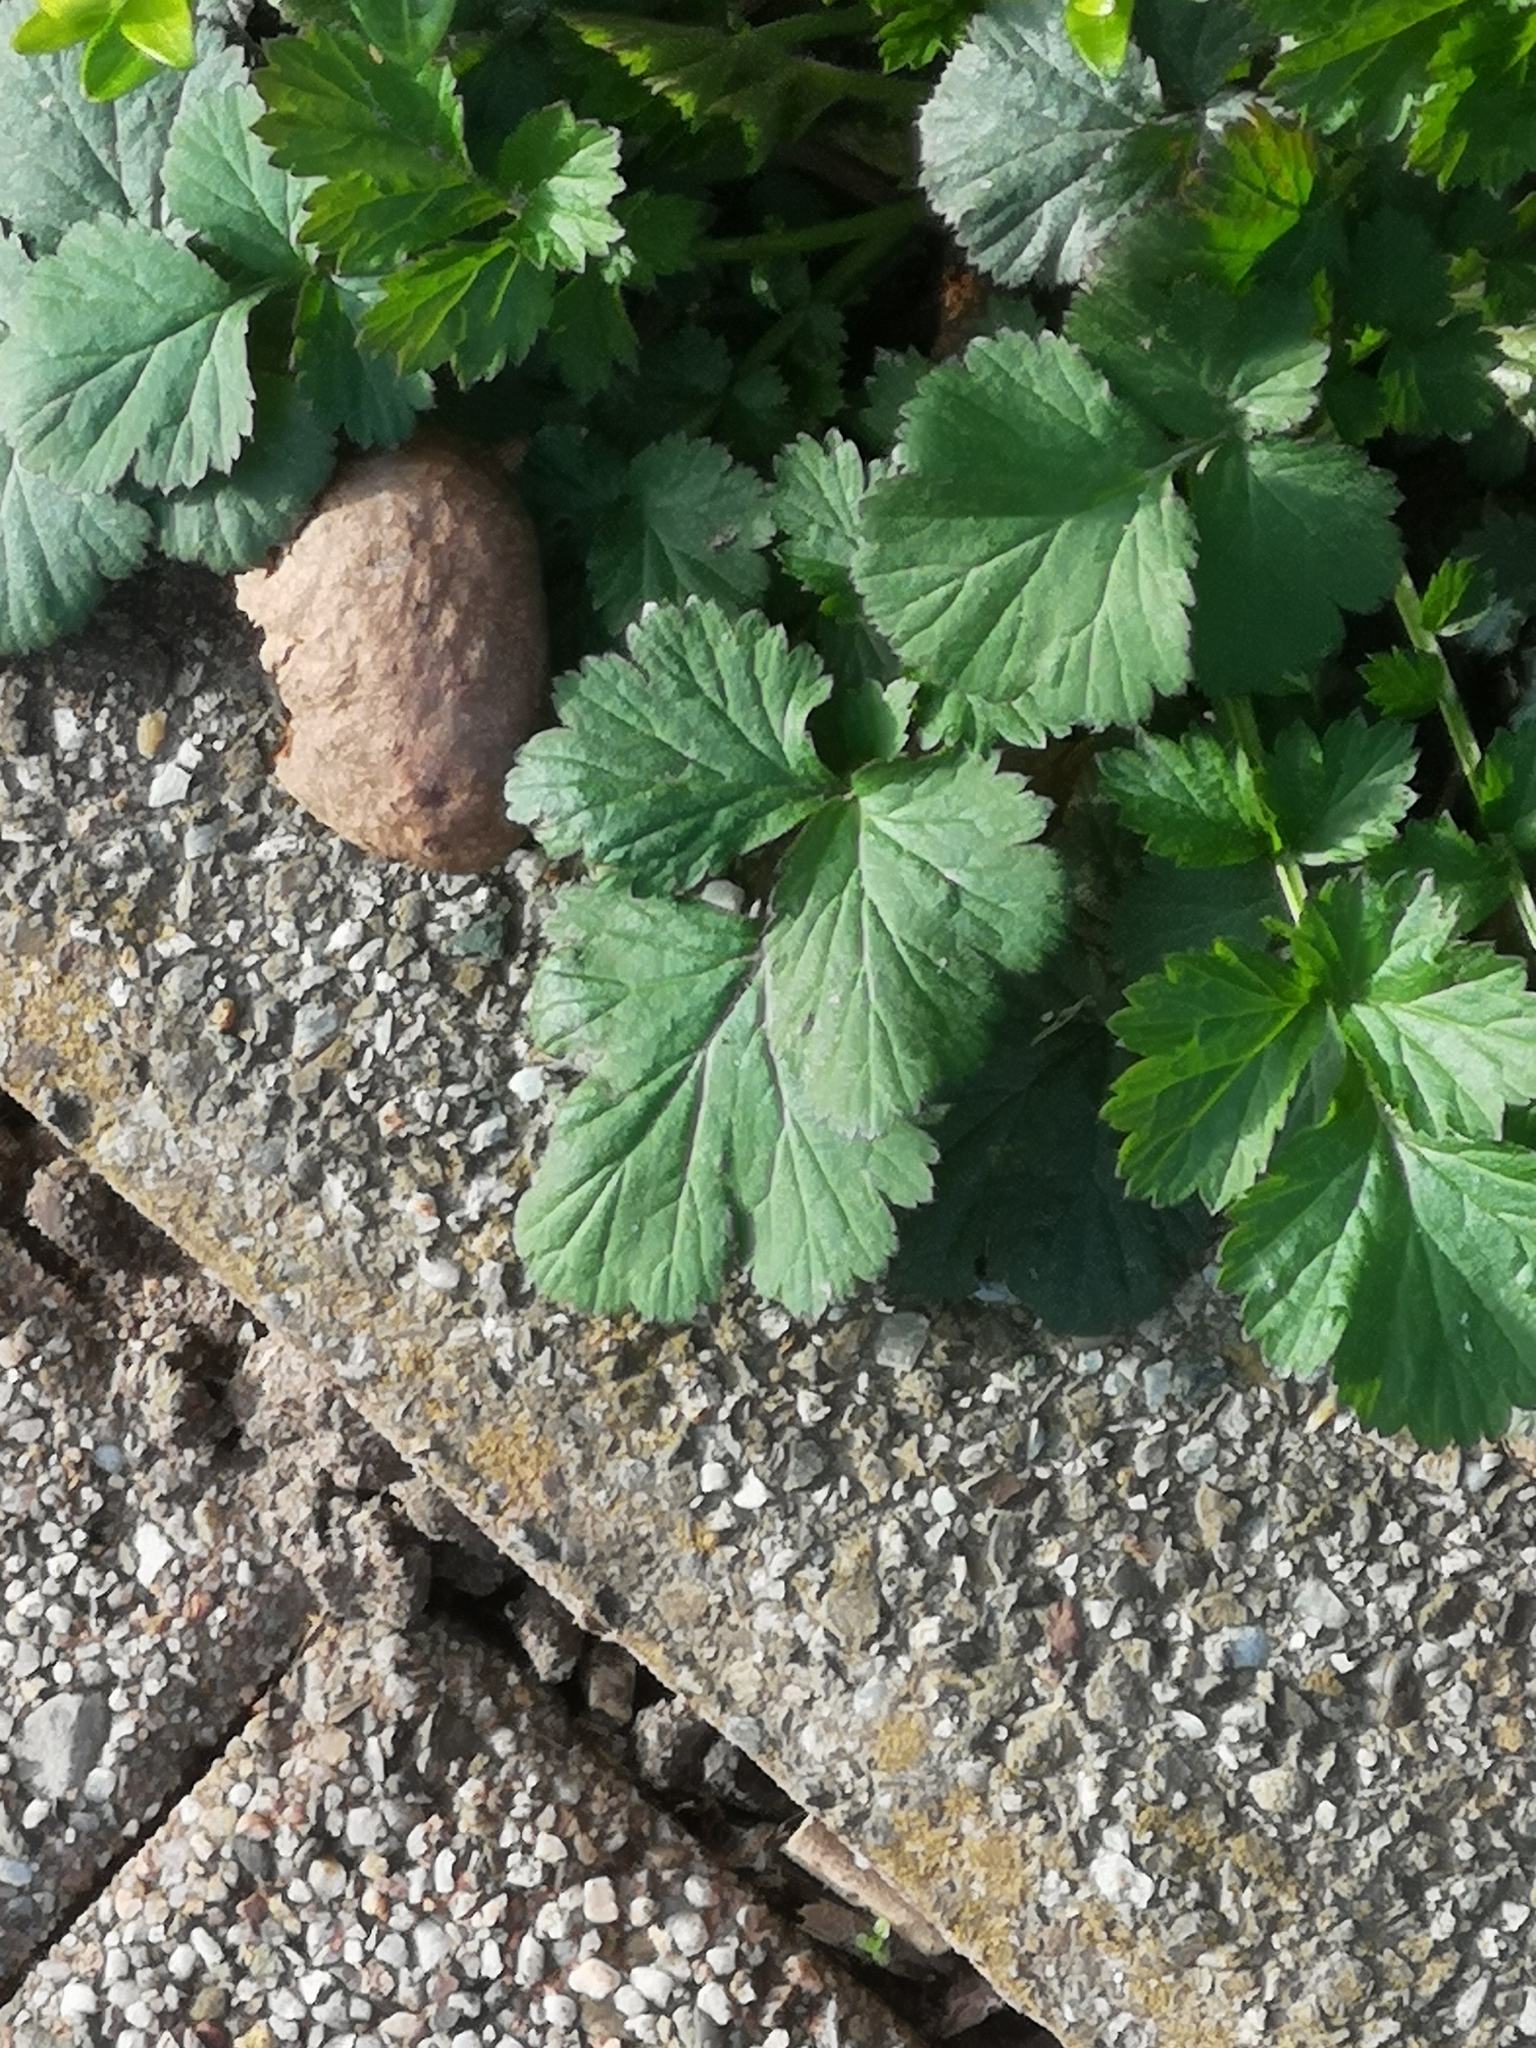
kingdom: Plantae
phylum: Tracheophyta
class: Magnoliopsida
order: Rosales
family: Rosaceae
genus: Geum
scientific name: Geum urbanum
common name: Wood avens
